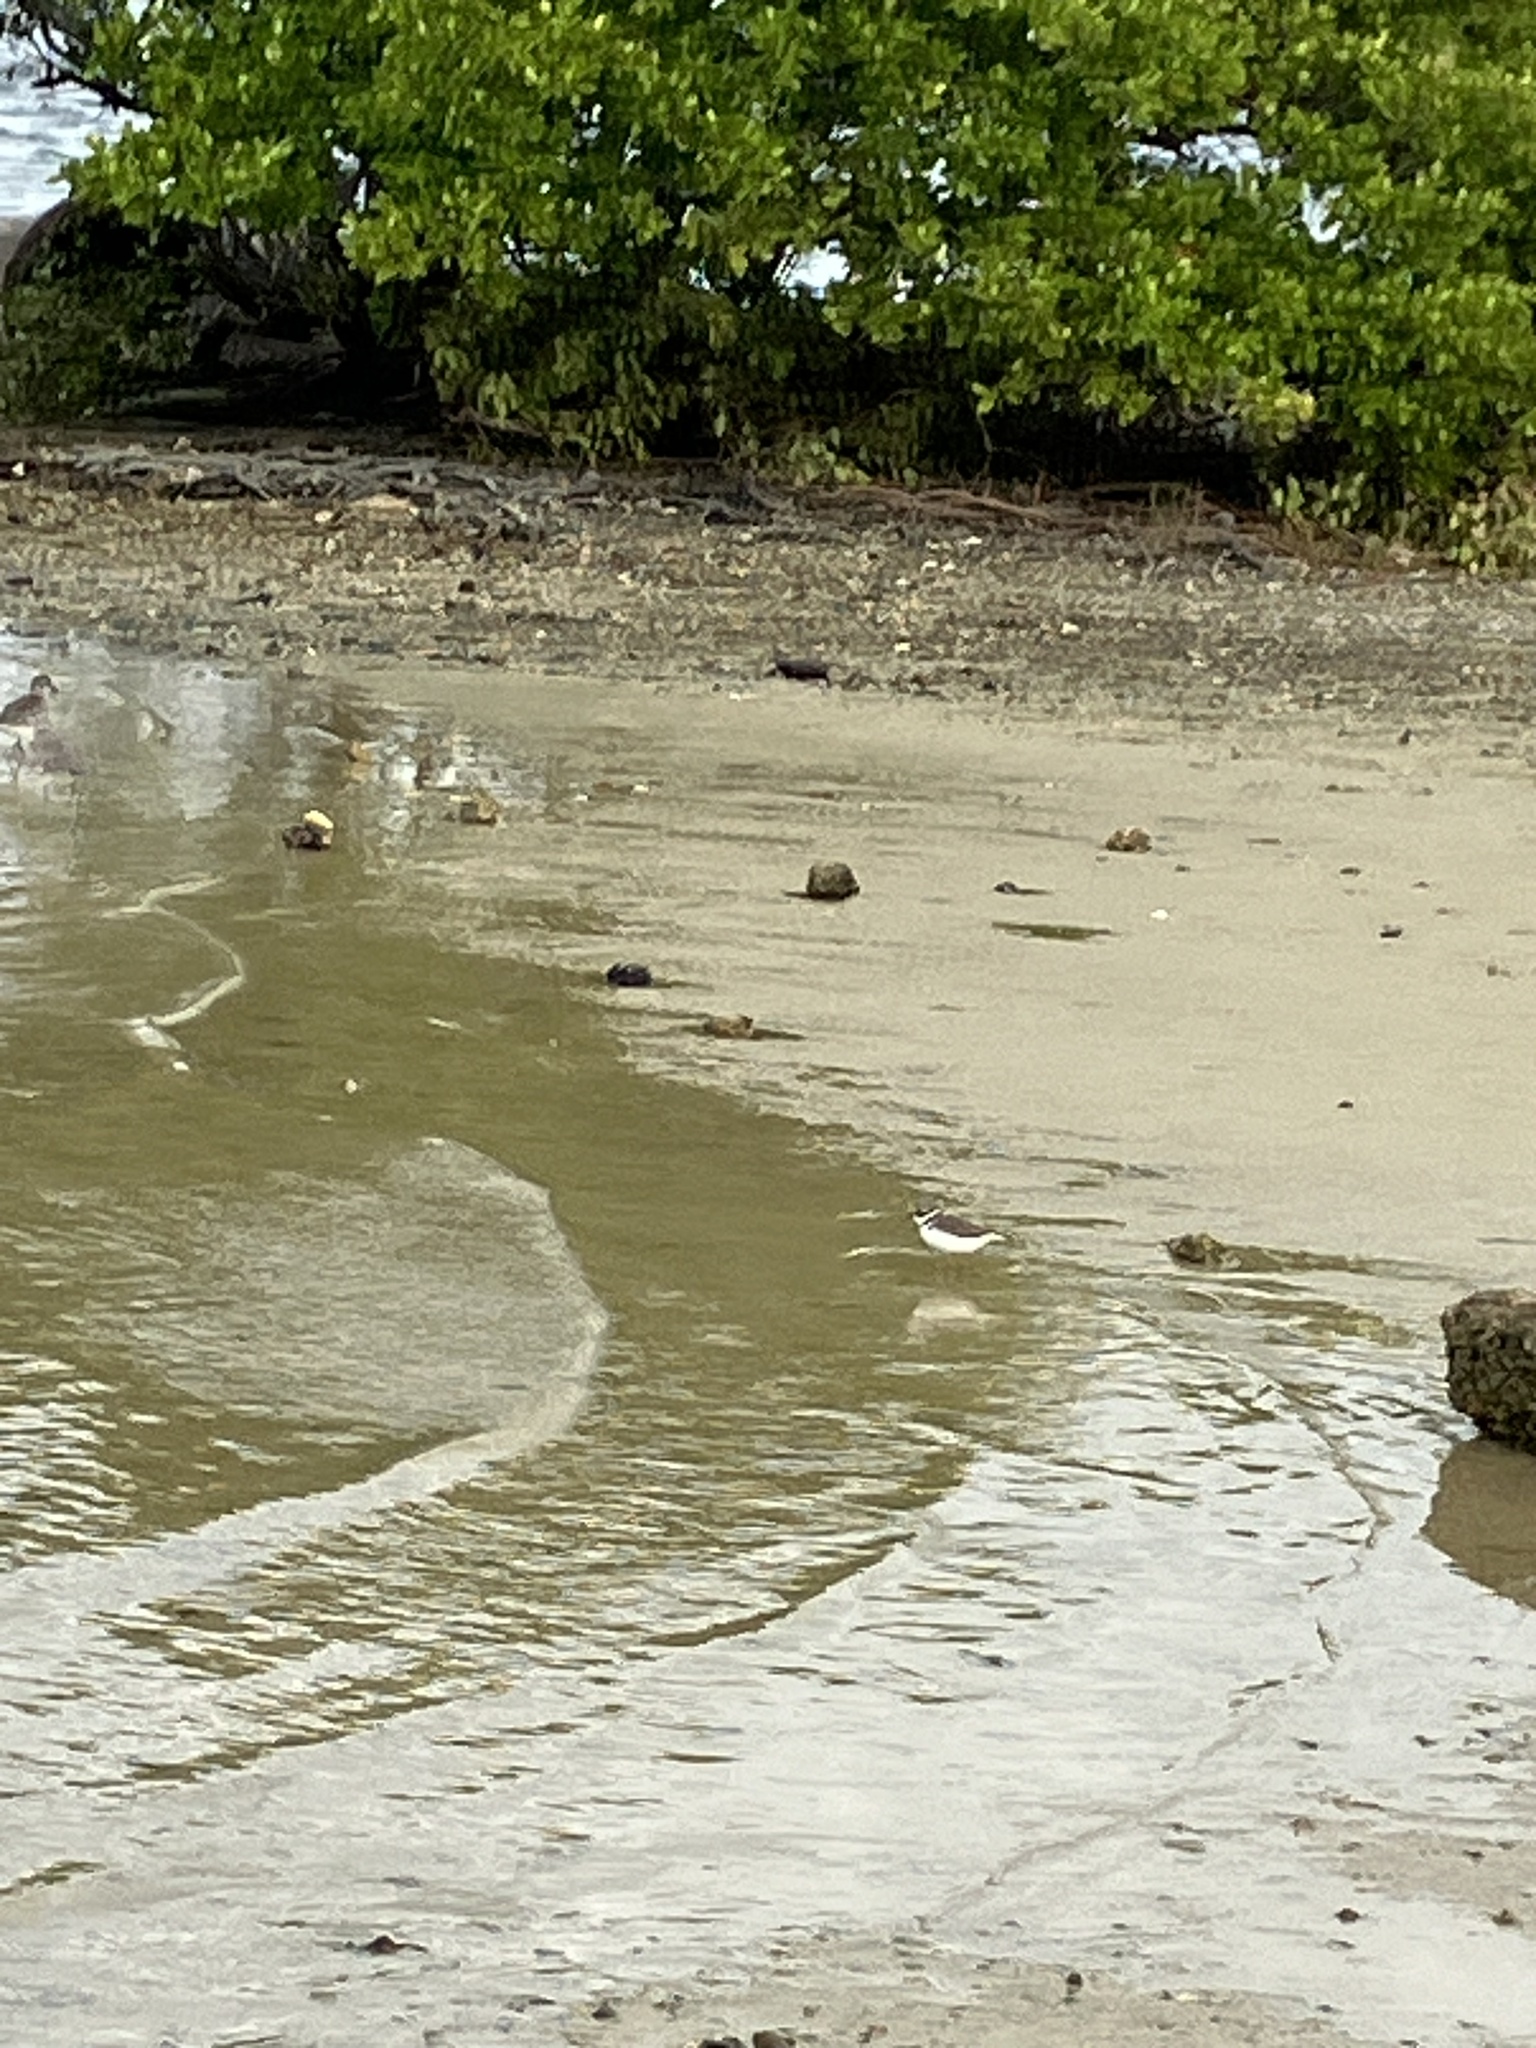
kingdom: Animalia
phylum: Chordata
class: Aves
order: Charadriiformes
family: Charadriidae
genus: Charadrius
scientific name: Charadrius semipalmatus
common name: Semipalmated plover
